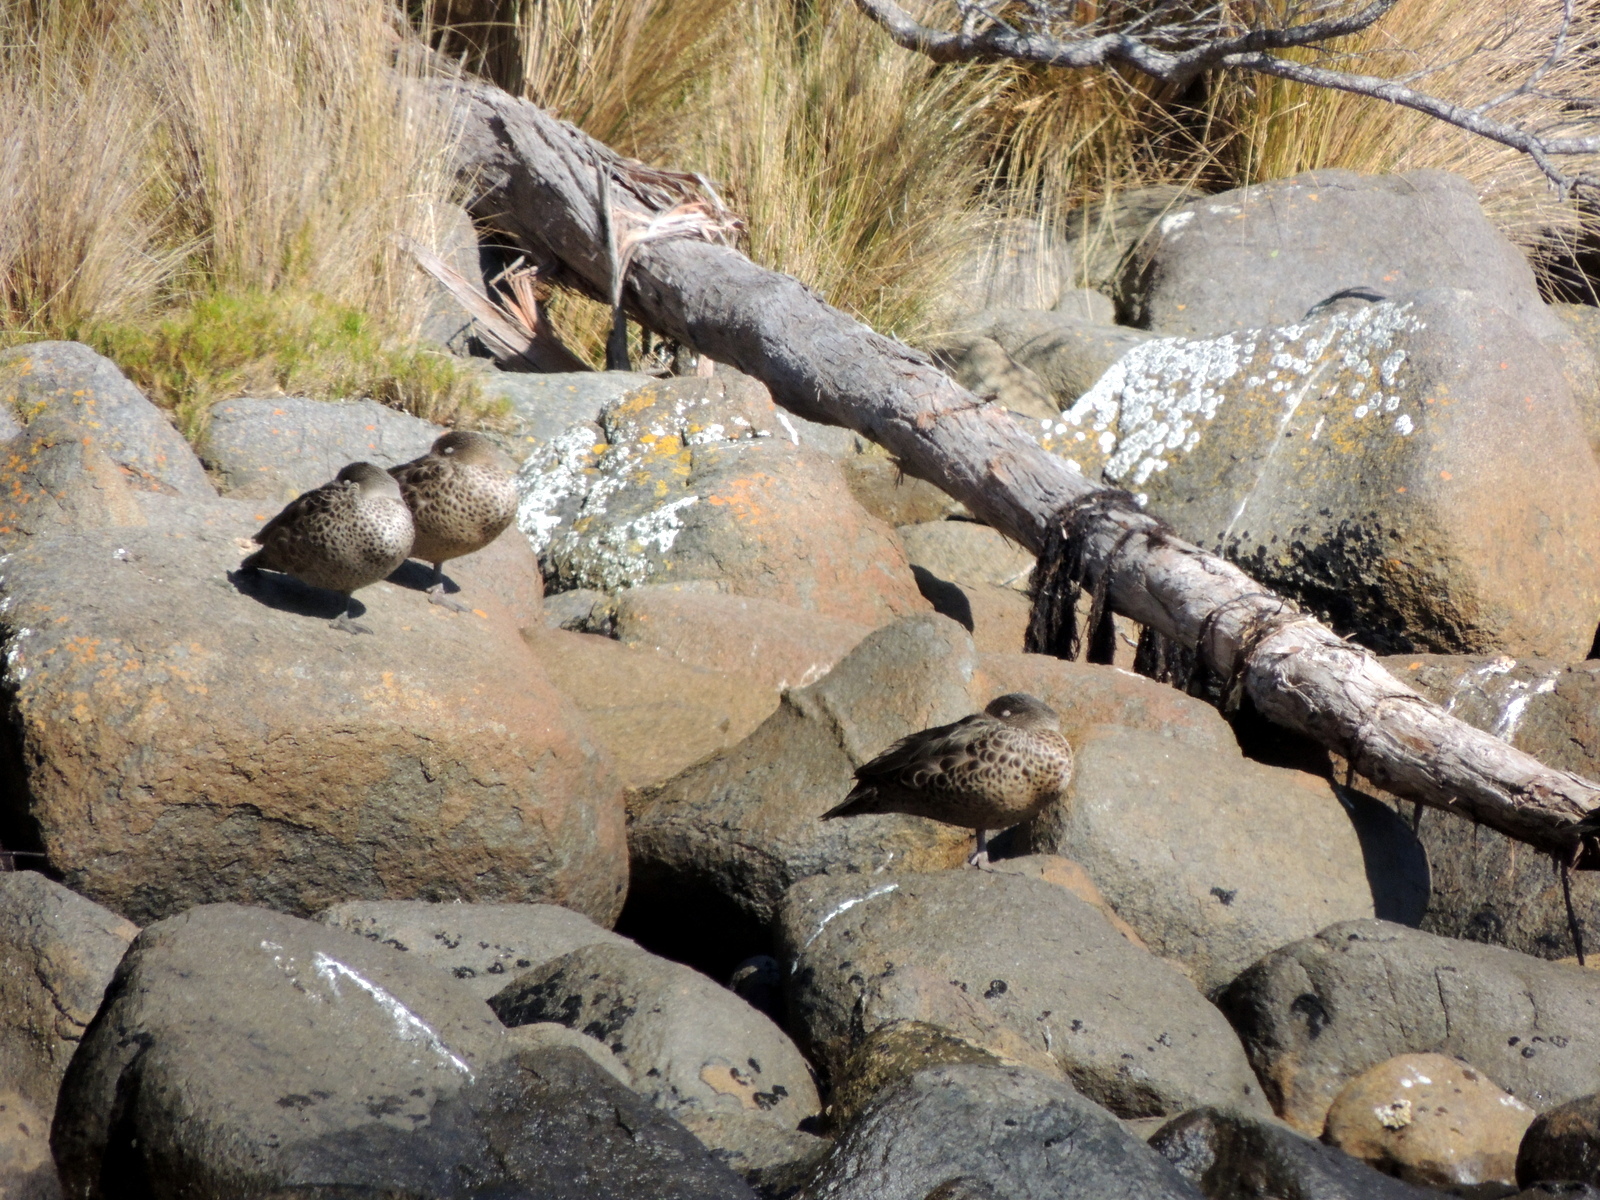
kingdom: Animalia
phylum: Chordata
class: Aves
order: Anseriformes
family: Anatidae
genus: Anas
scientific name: Anas castanea
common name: Chestnut teal
